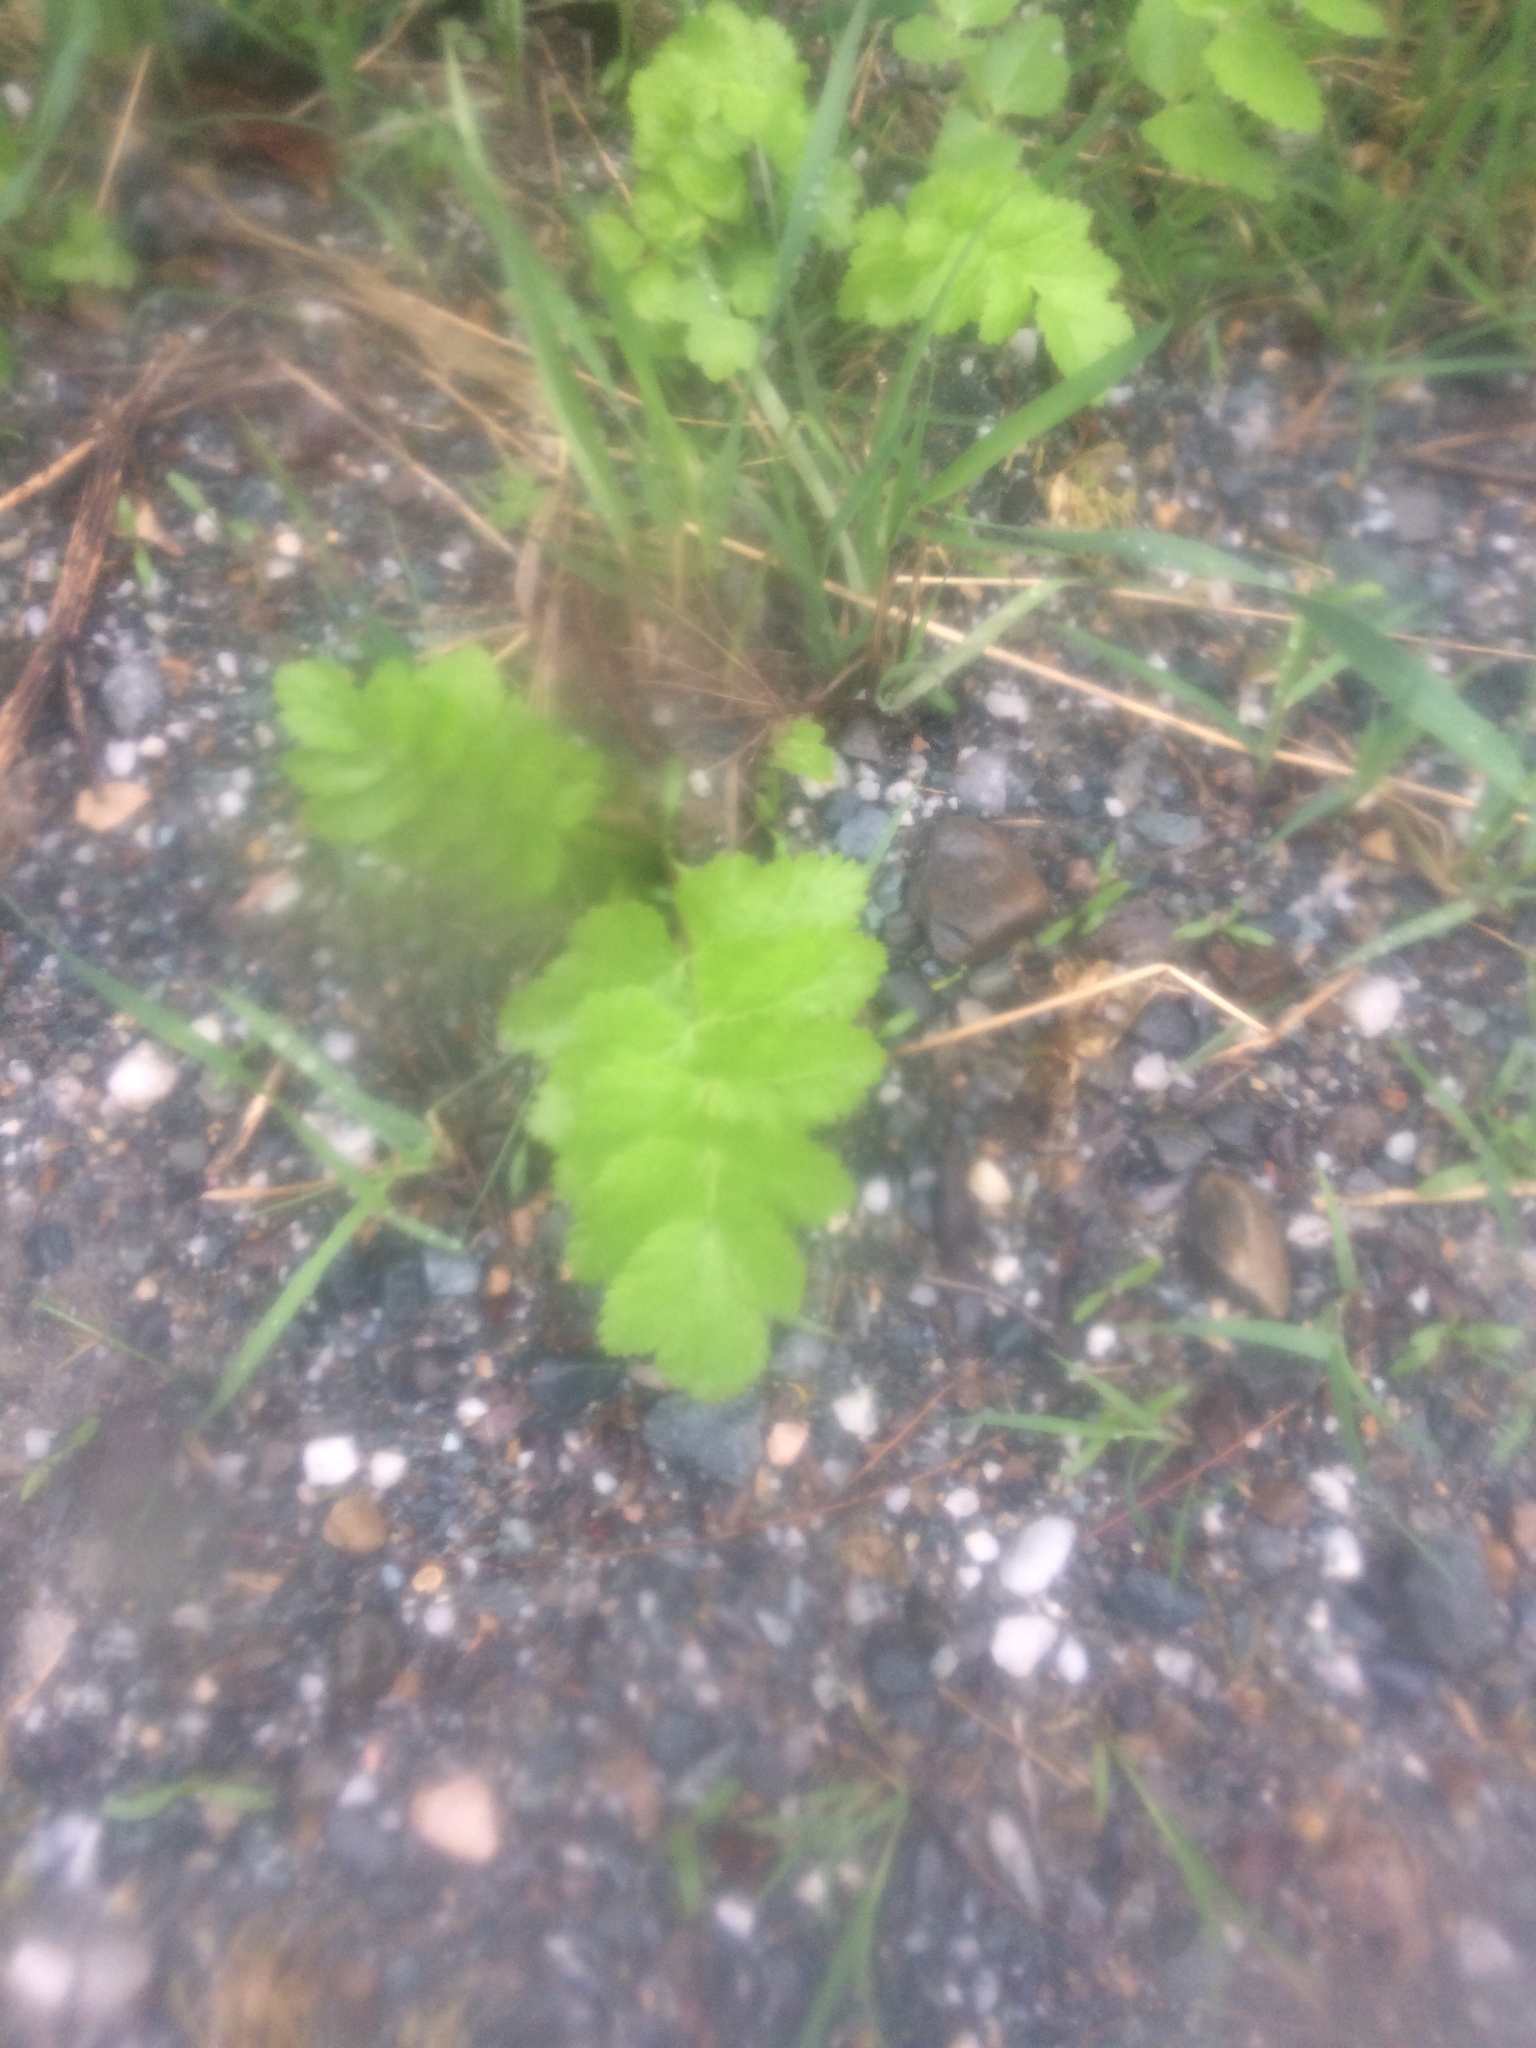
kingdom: Plantae
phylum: Tracheophyta
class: Magnoliopsida
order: Apiales
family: Apiaceae
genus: Pastinaca
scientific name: Pastinaca sativa
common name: Wild parsnip
